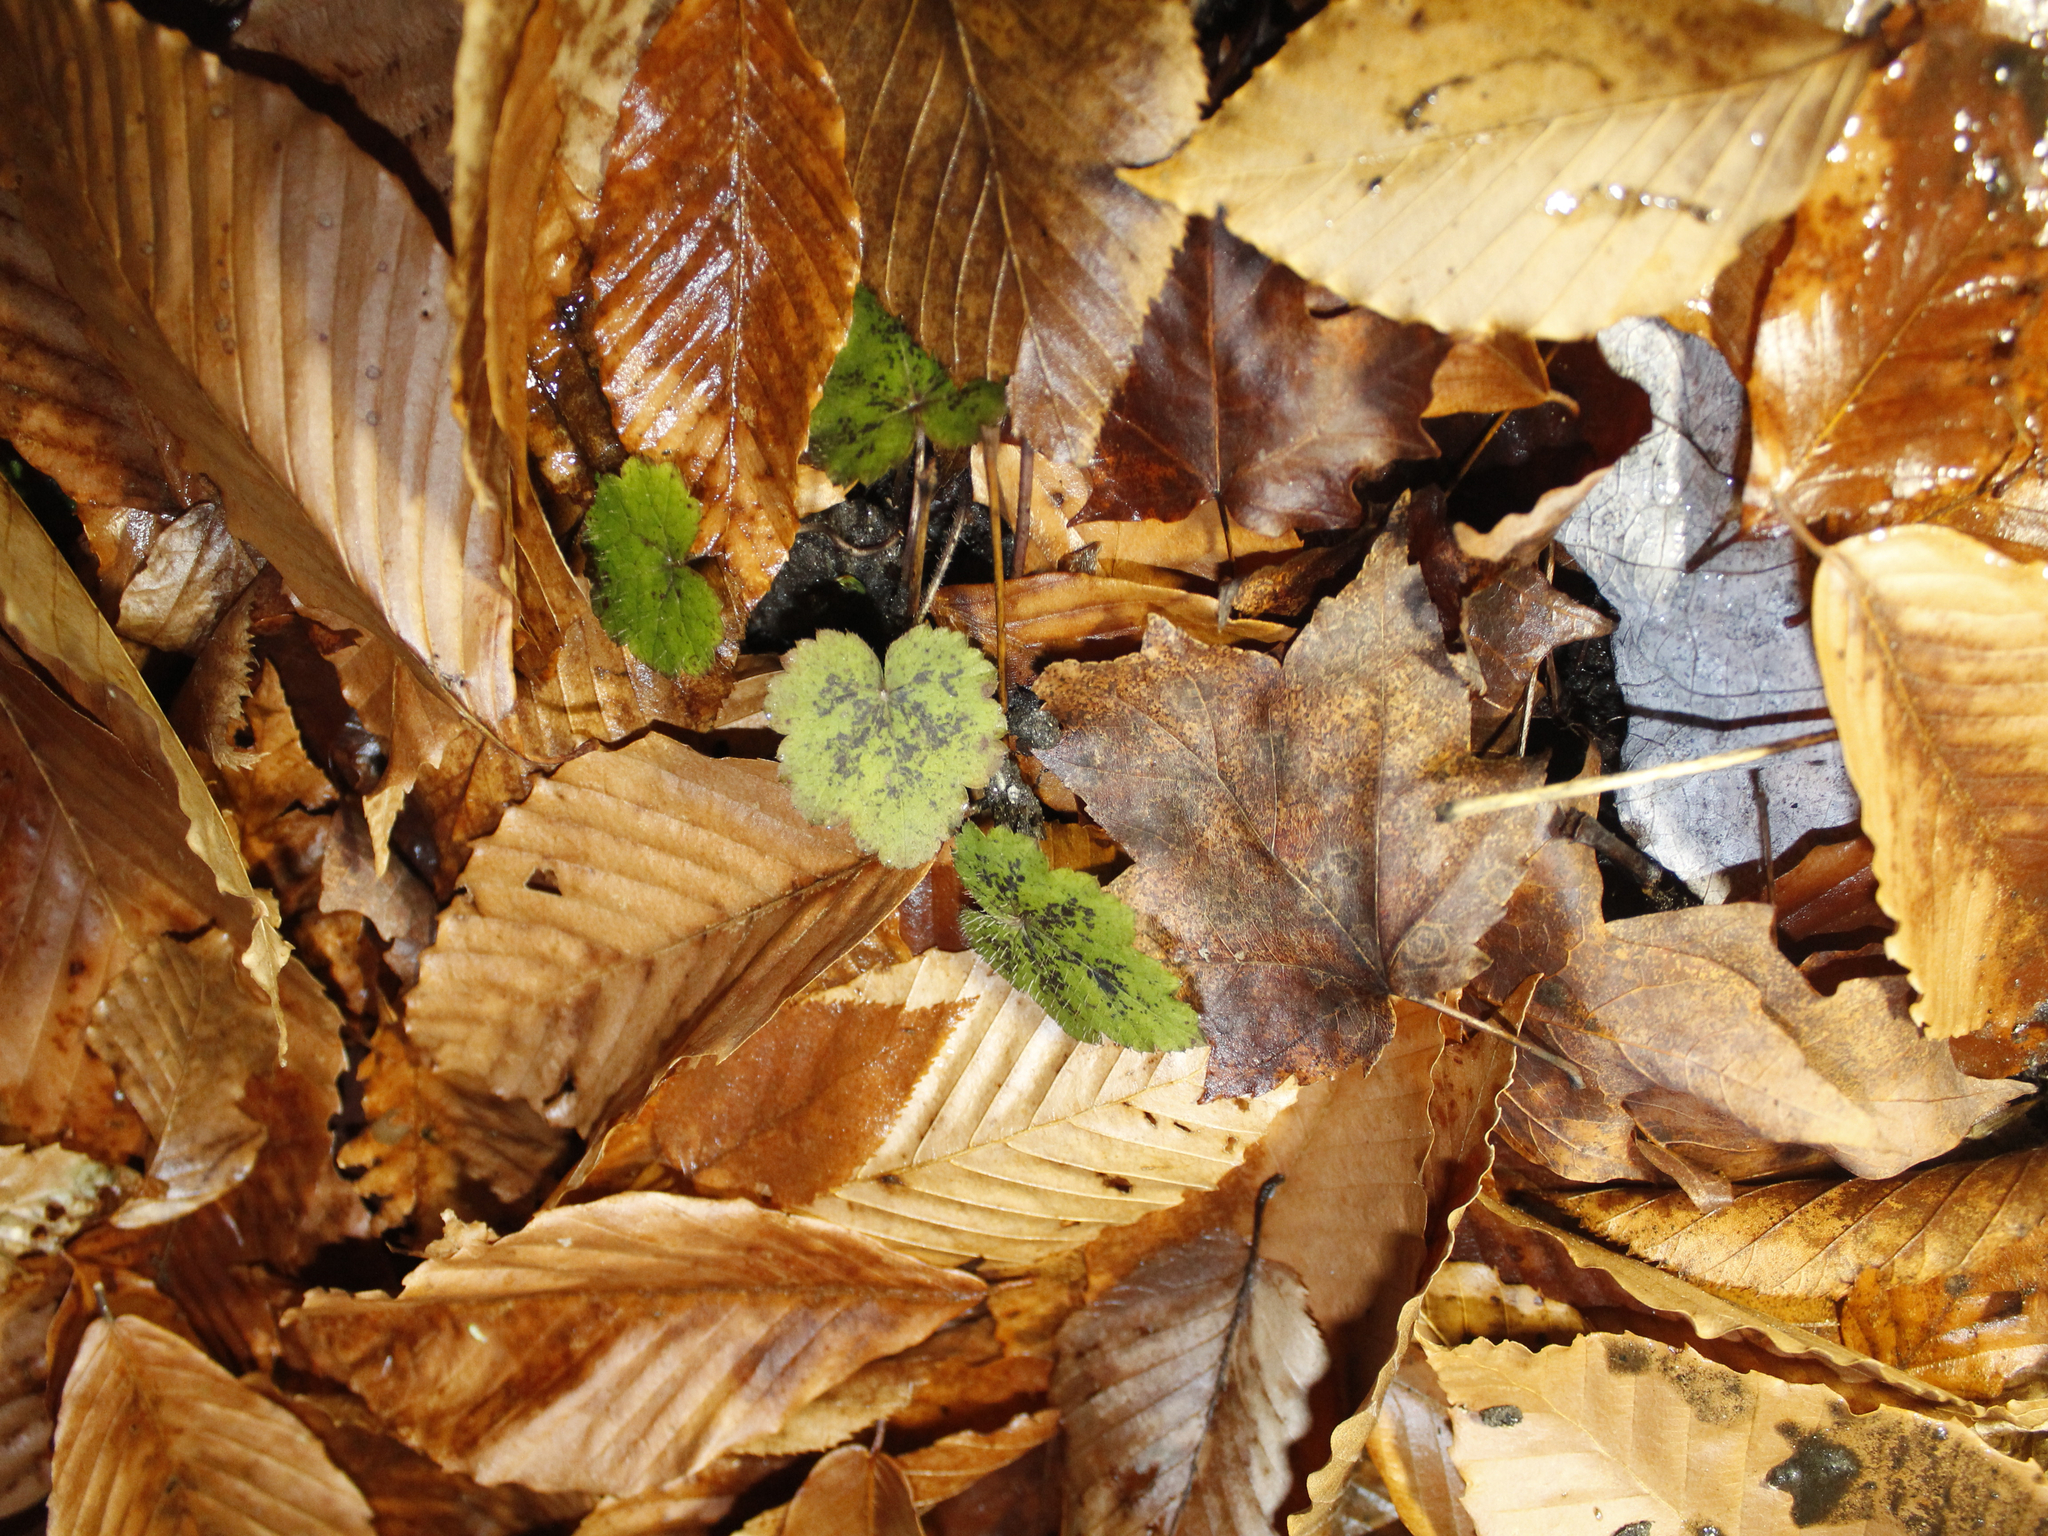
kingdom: Plantae
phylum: Tracheophyta
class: Magnoliopsida
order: Saxifragales
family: Saxifragaceae
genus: Tiarella
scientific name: Tiarella stolonifera
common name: Stoloniferous foamflower
